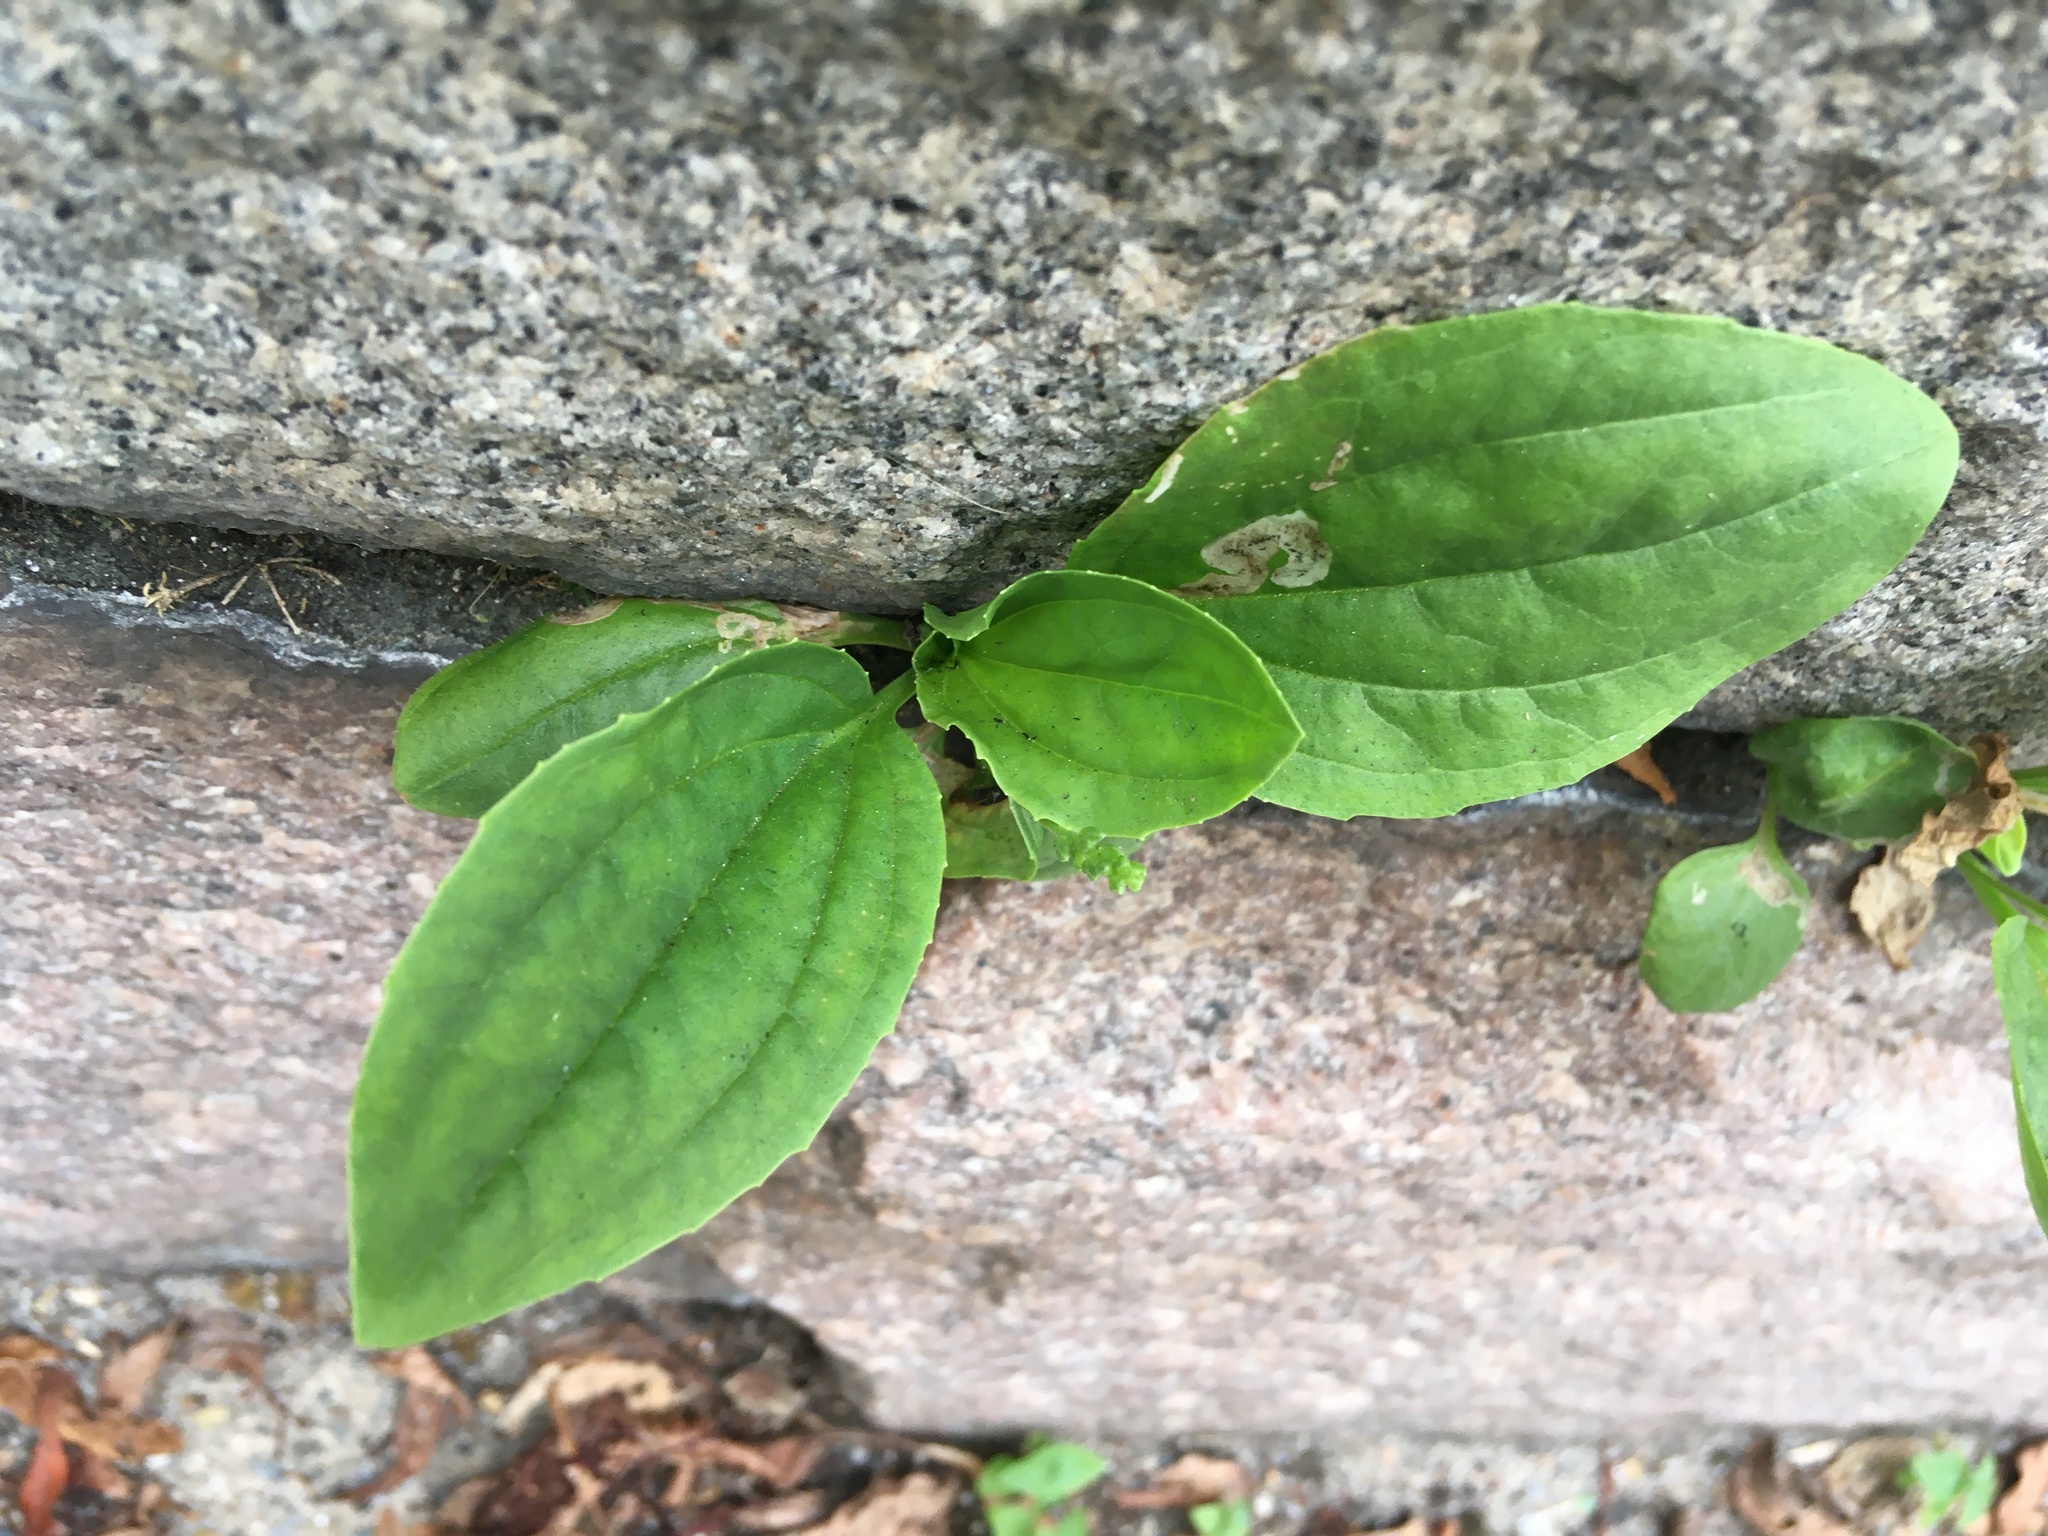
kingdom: Plantae
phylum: Tracheophyta
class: Magnoliopsida
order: Lamiales
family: Plantaginaceae
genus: Plantago
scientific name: Plantago major
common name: Common plantain
